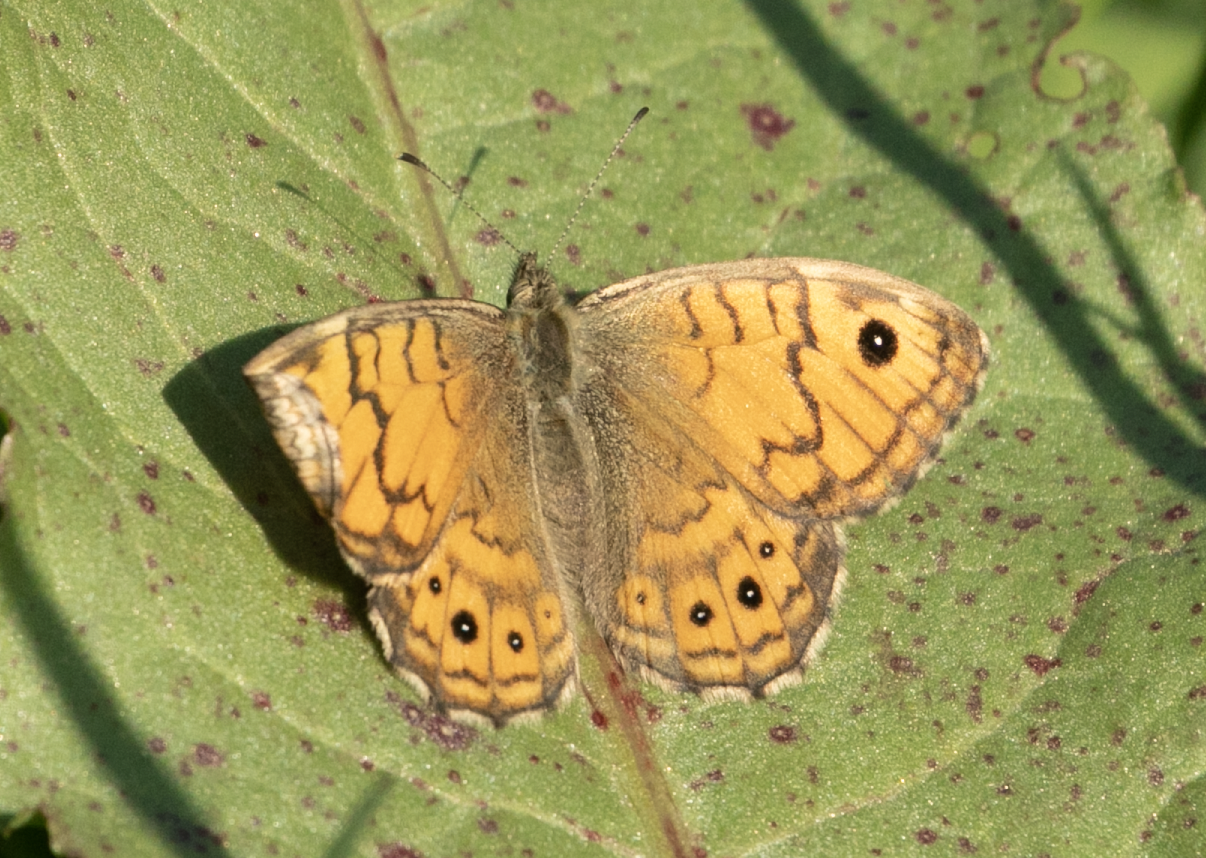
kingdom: Animalia
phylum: Arthropoda
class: Insecta
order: Lepidoptera
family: Nymphalidae
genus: Pararge
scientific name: Pararge Lasiommata megera
